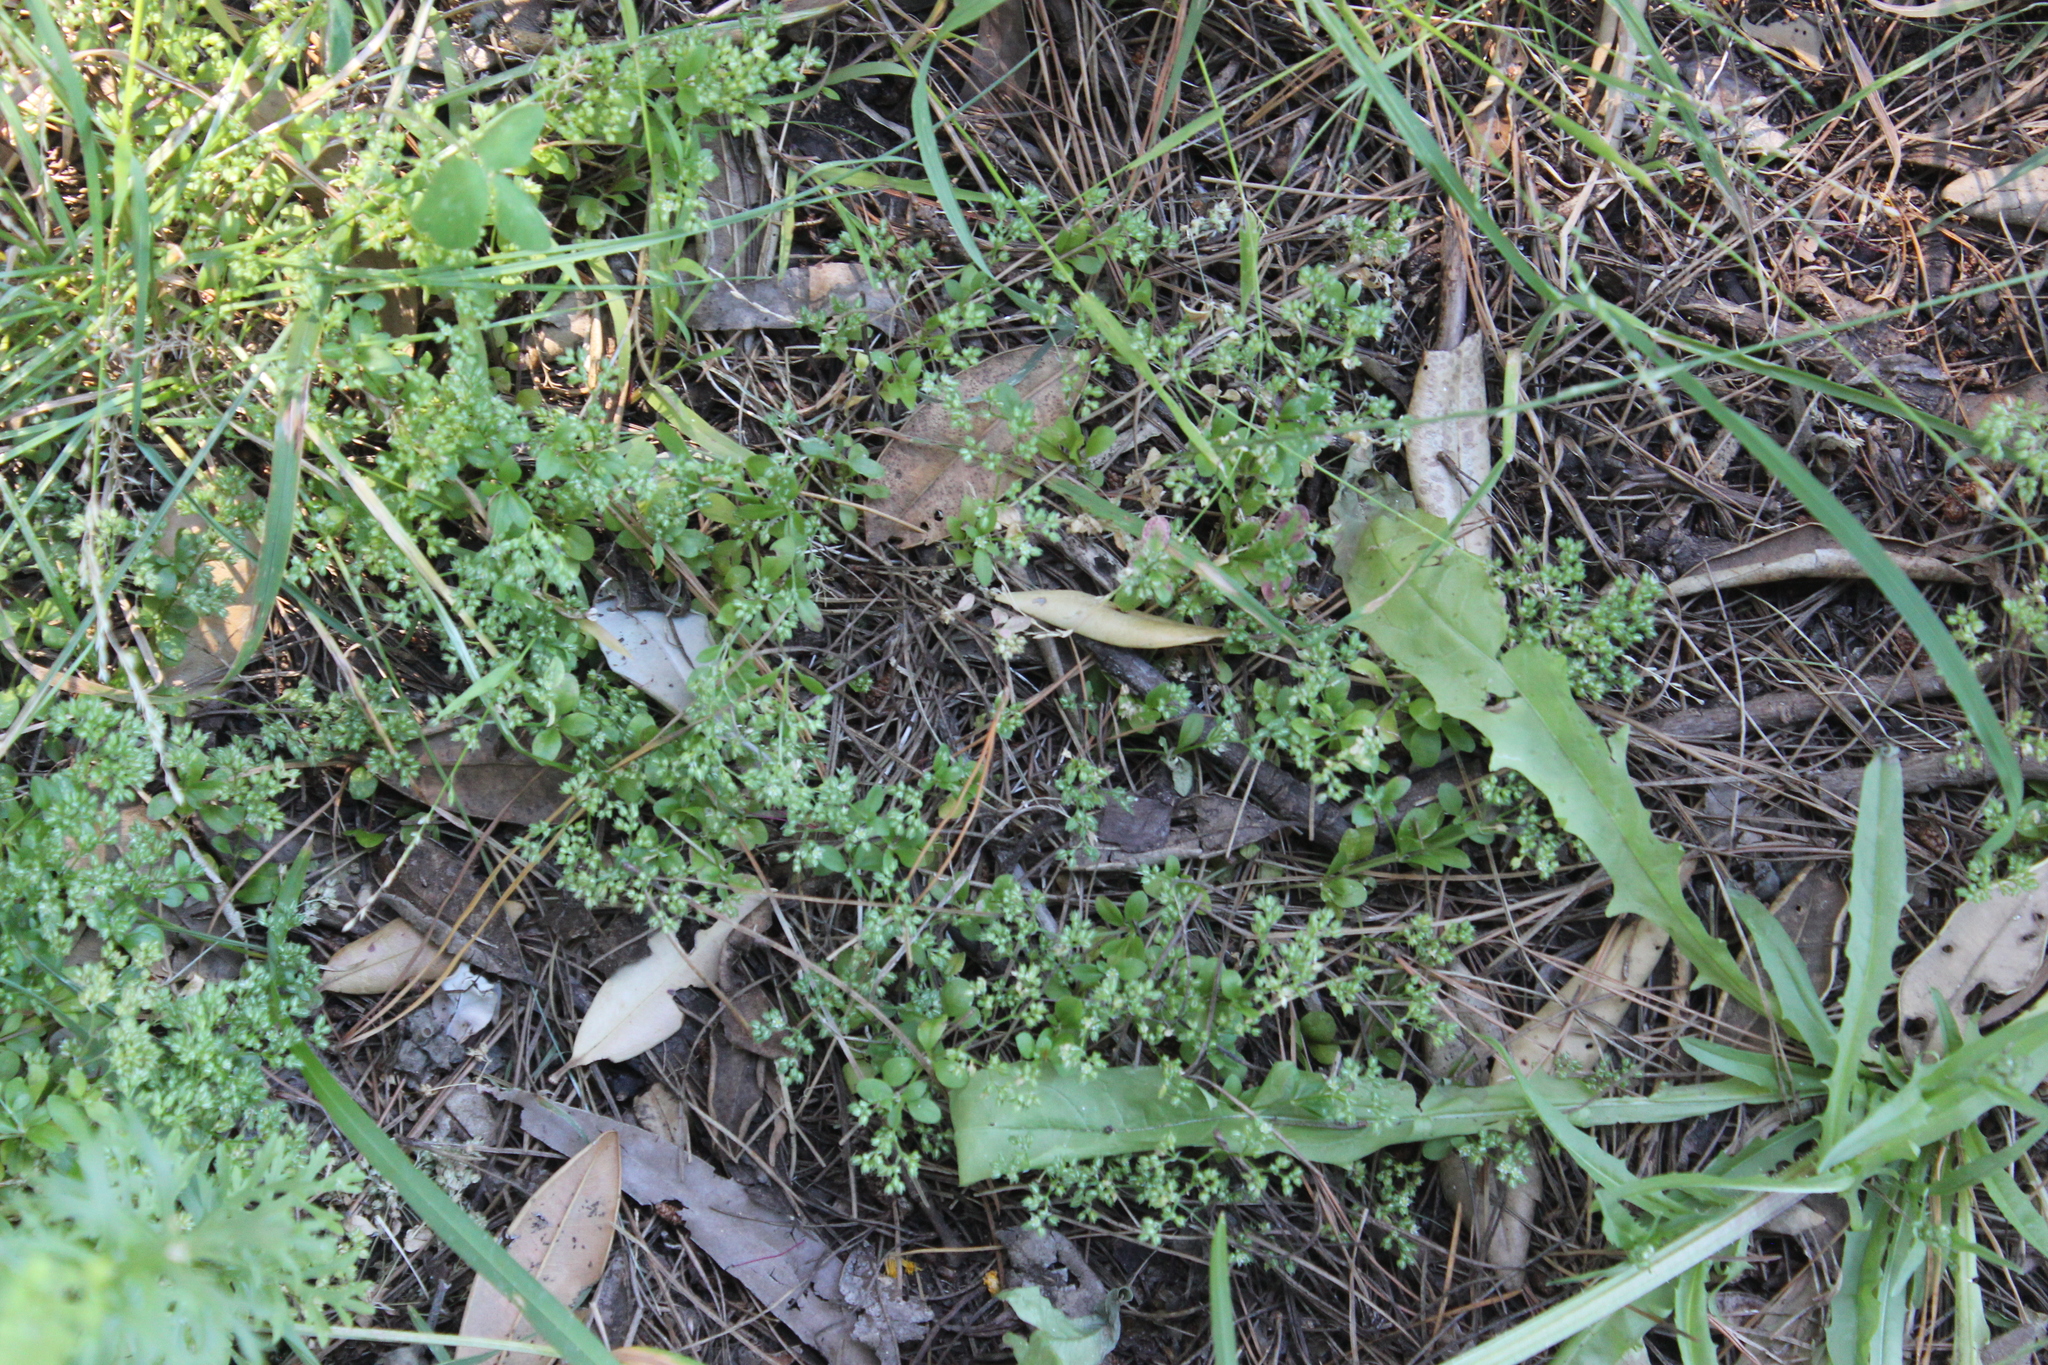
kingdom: Plantae
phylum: Tracheophyta
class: Magnoliopsida
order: Caryophyllales
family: Caryophyllaceae
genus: Polycarpon
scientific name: Polycarpon tetraphyllum
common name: Four-leaved all-seed
